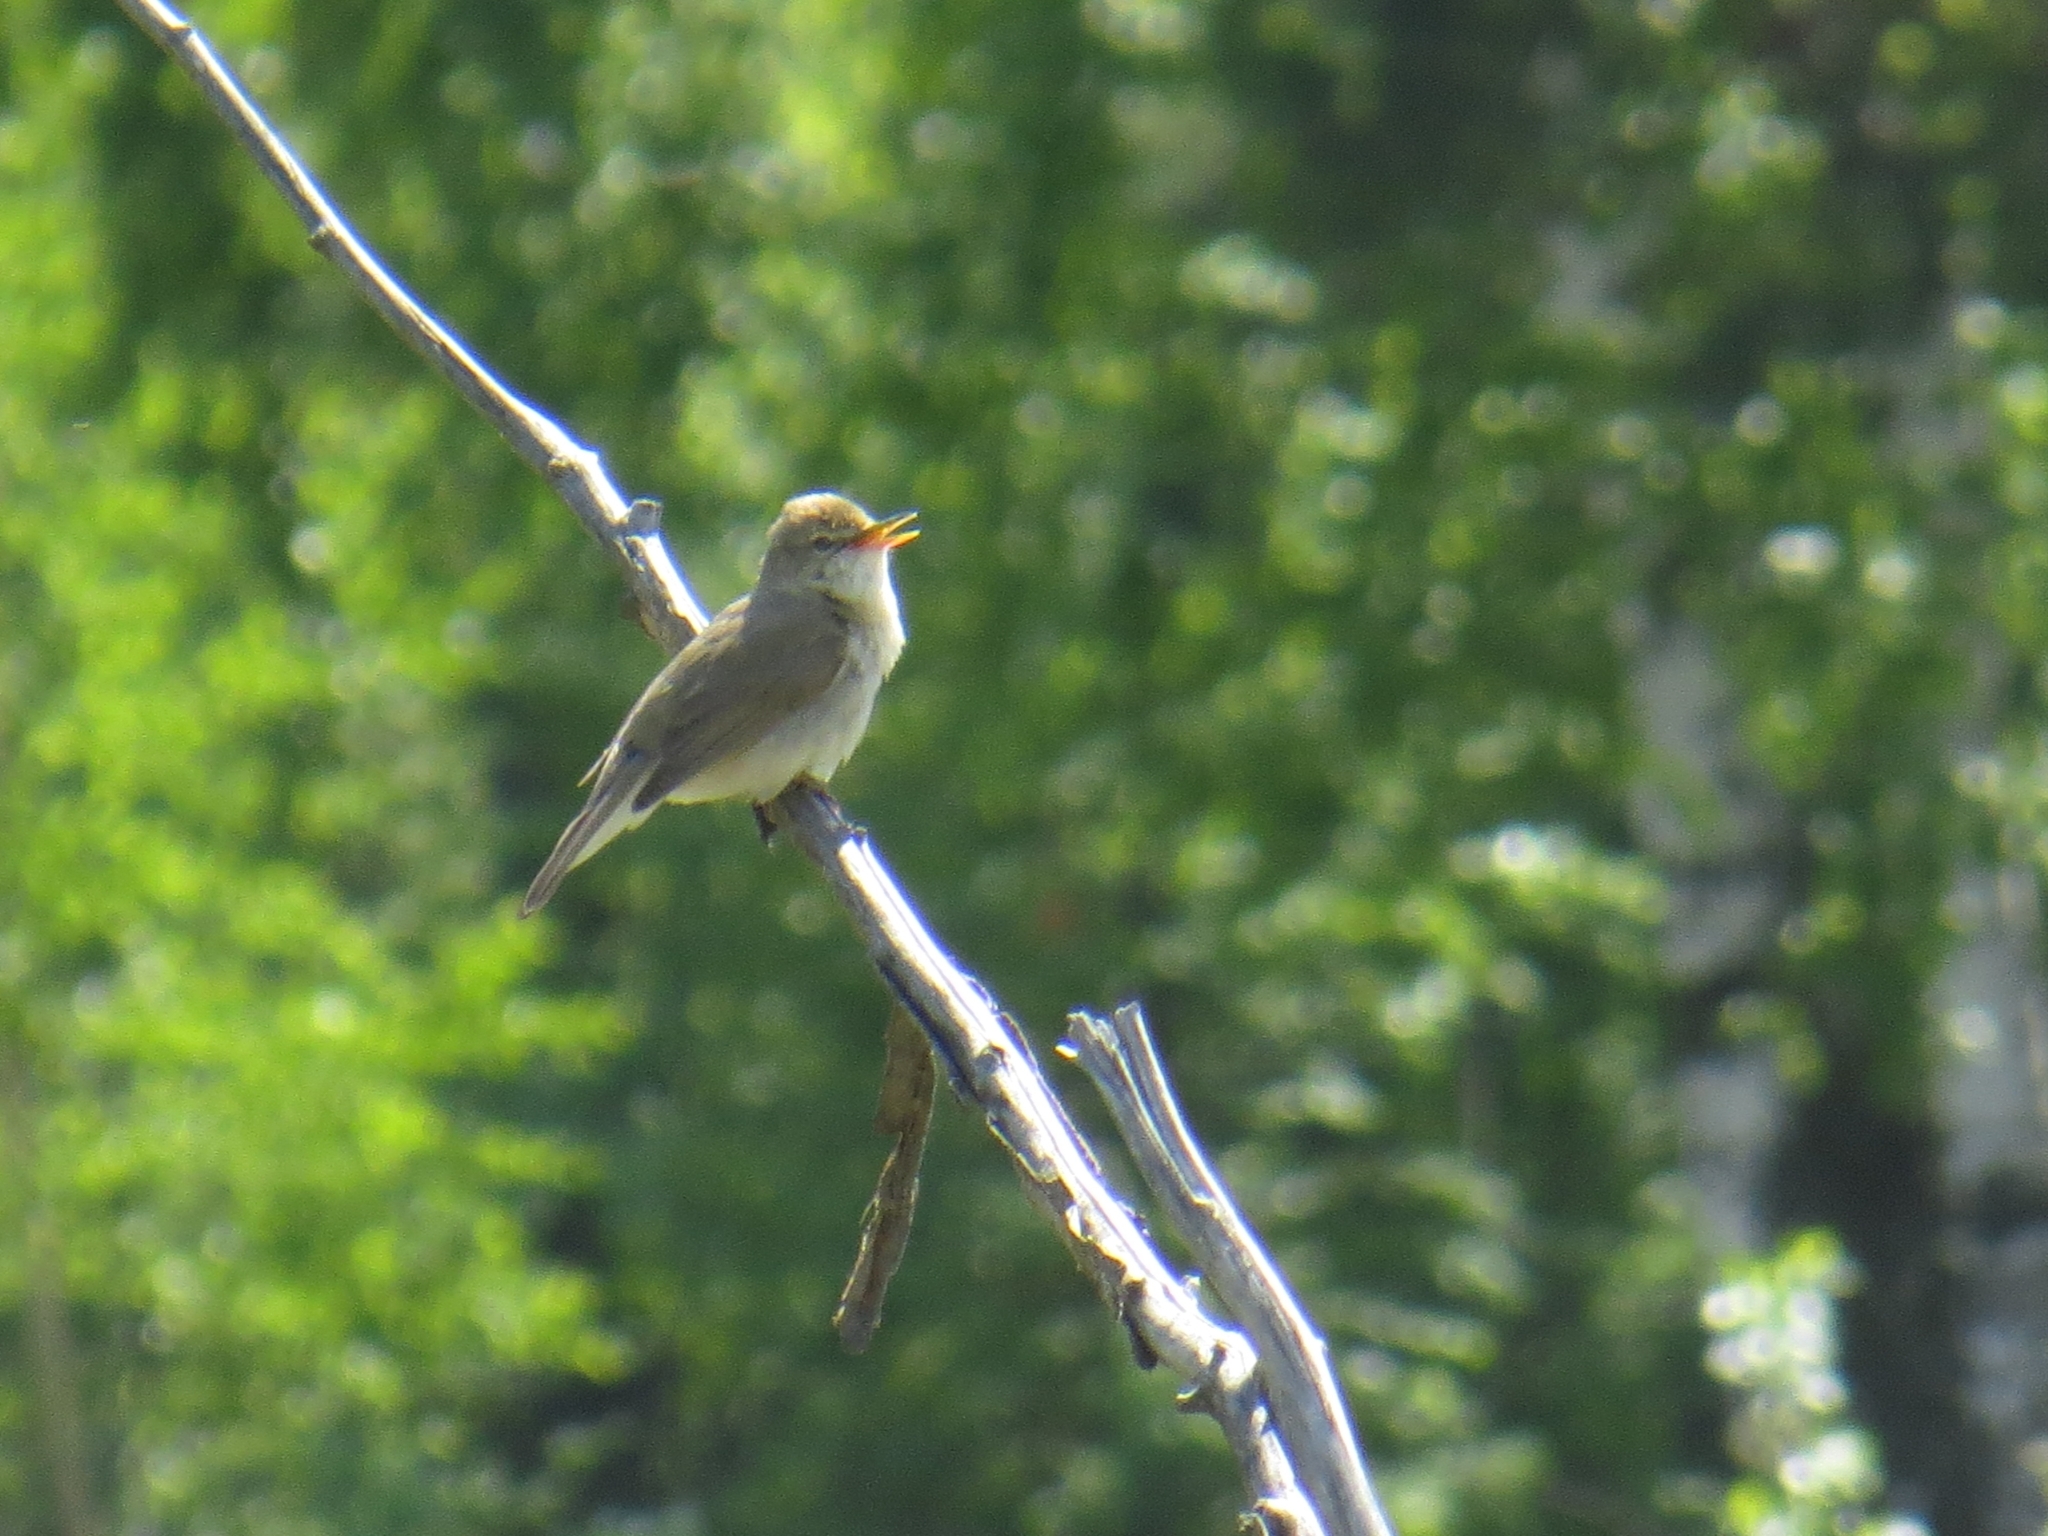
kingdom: Animalia
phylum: Chordata
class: Aves
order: Passeriformes
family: Acrocephalidae
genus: Acrocephalus
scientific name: Acrocephalus dumetorum
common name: Blyth's reed warbler
